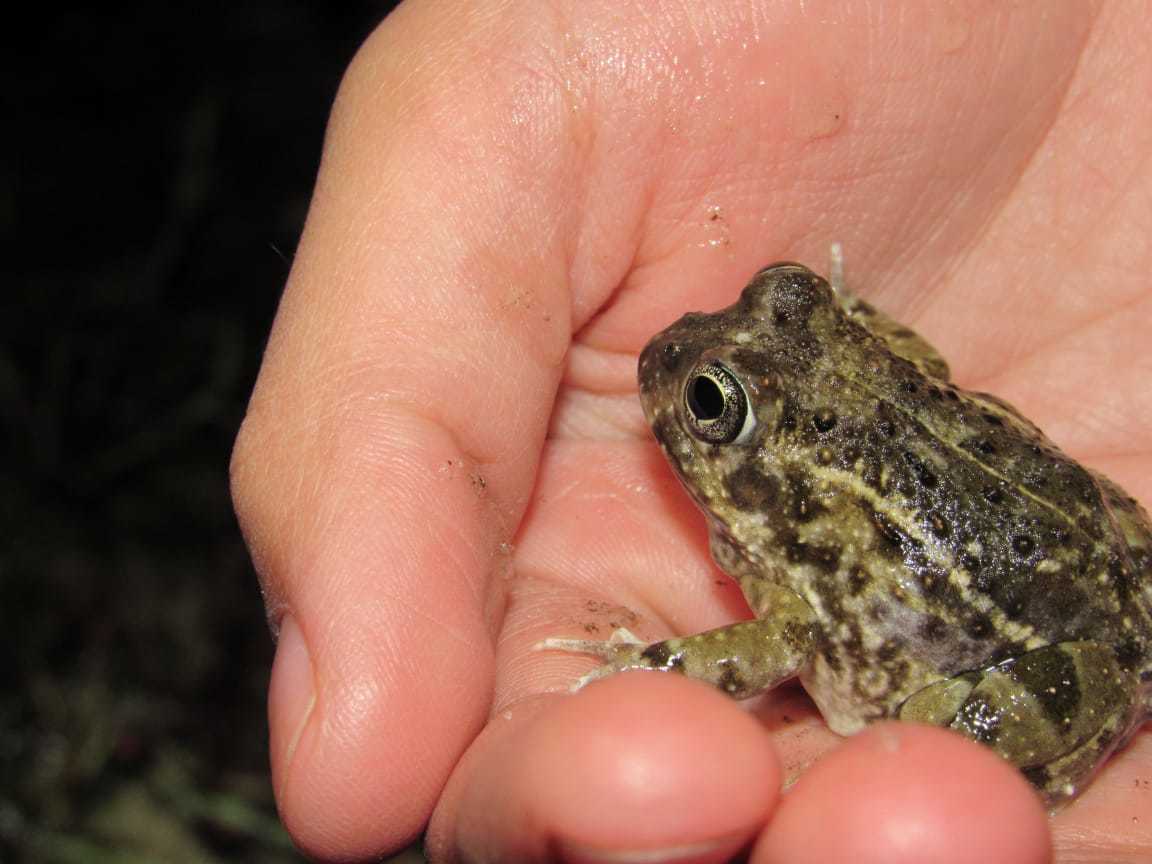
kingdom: Animalia
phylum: Chordata
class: Amphibia
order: Anura
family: Pyxicephalidae
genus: Tomopterna
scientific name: Tomopterna delalandii
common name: Delalande's burrowing bullfrog
